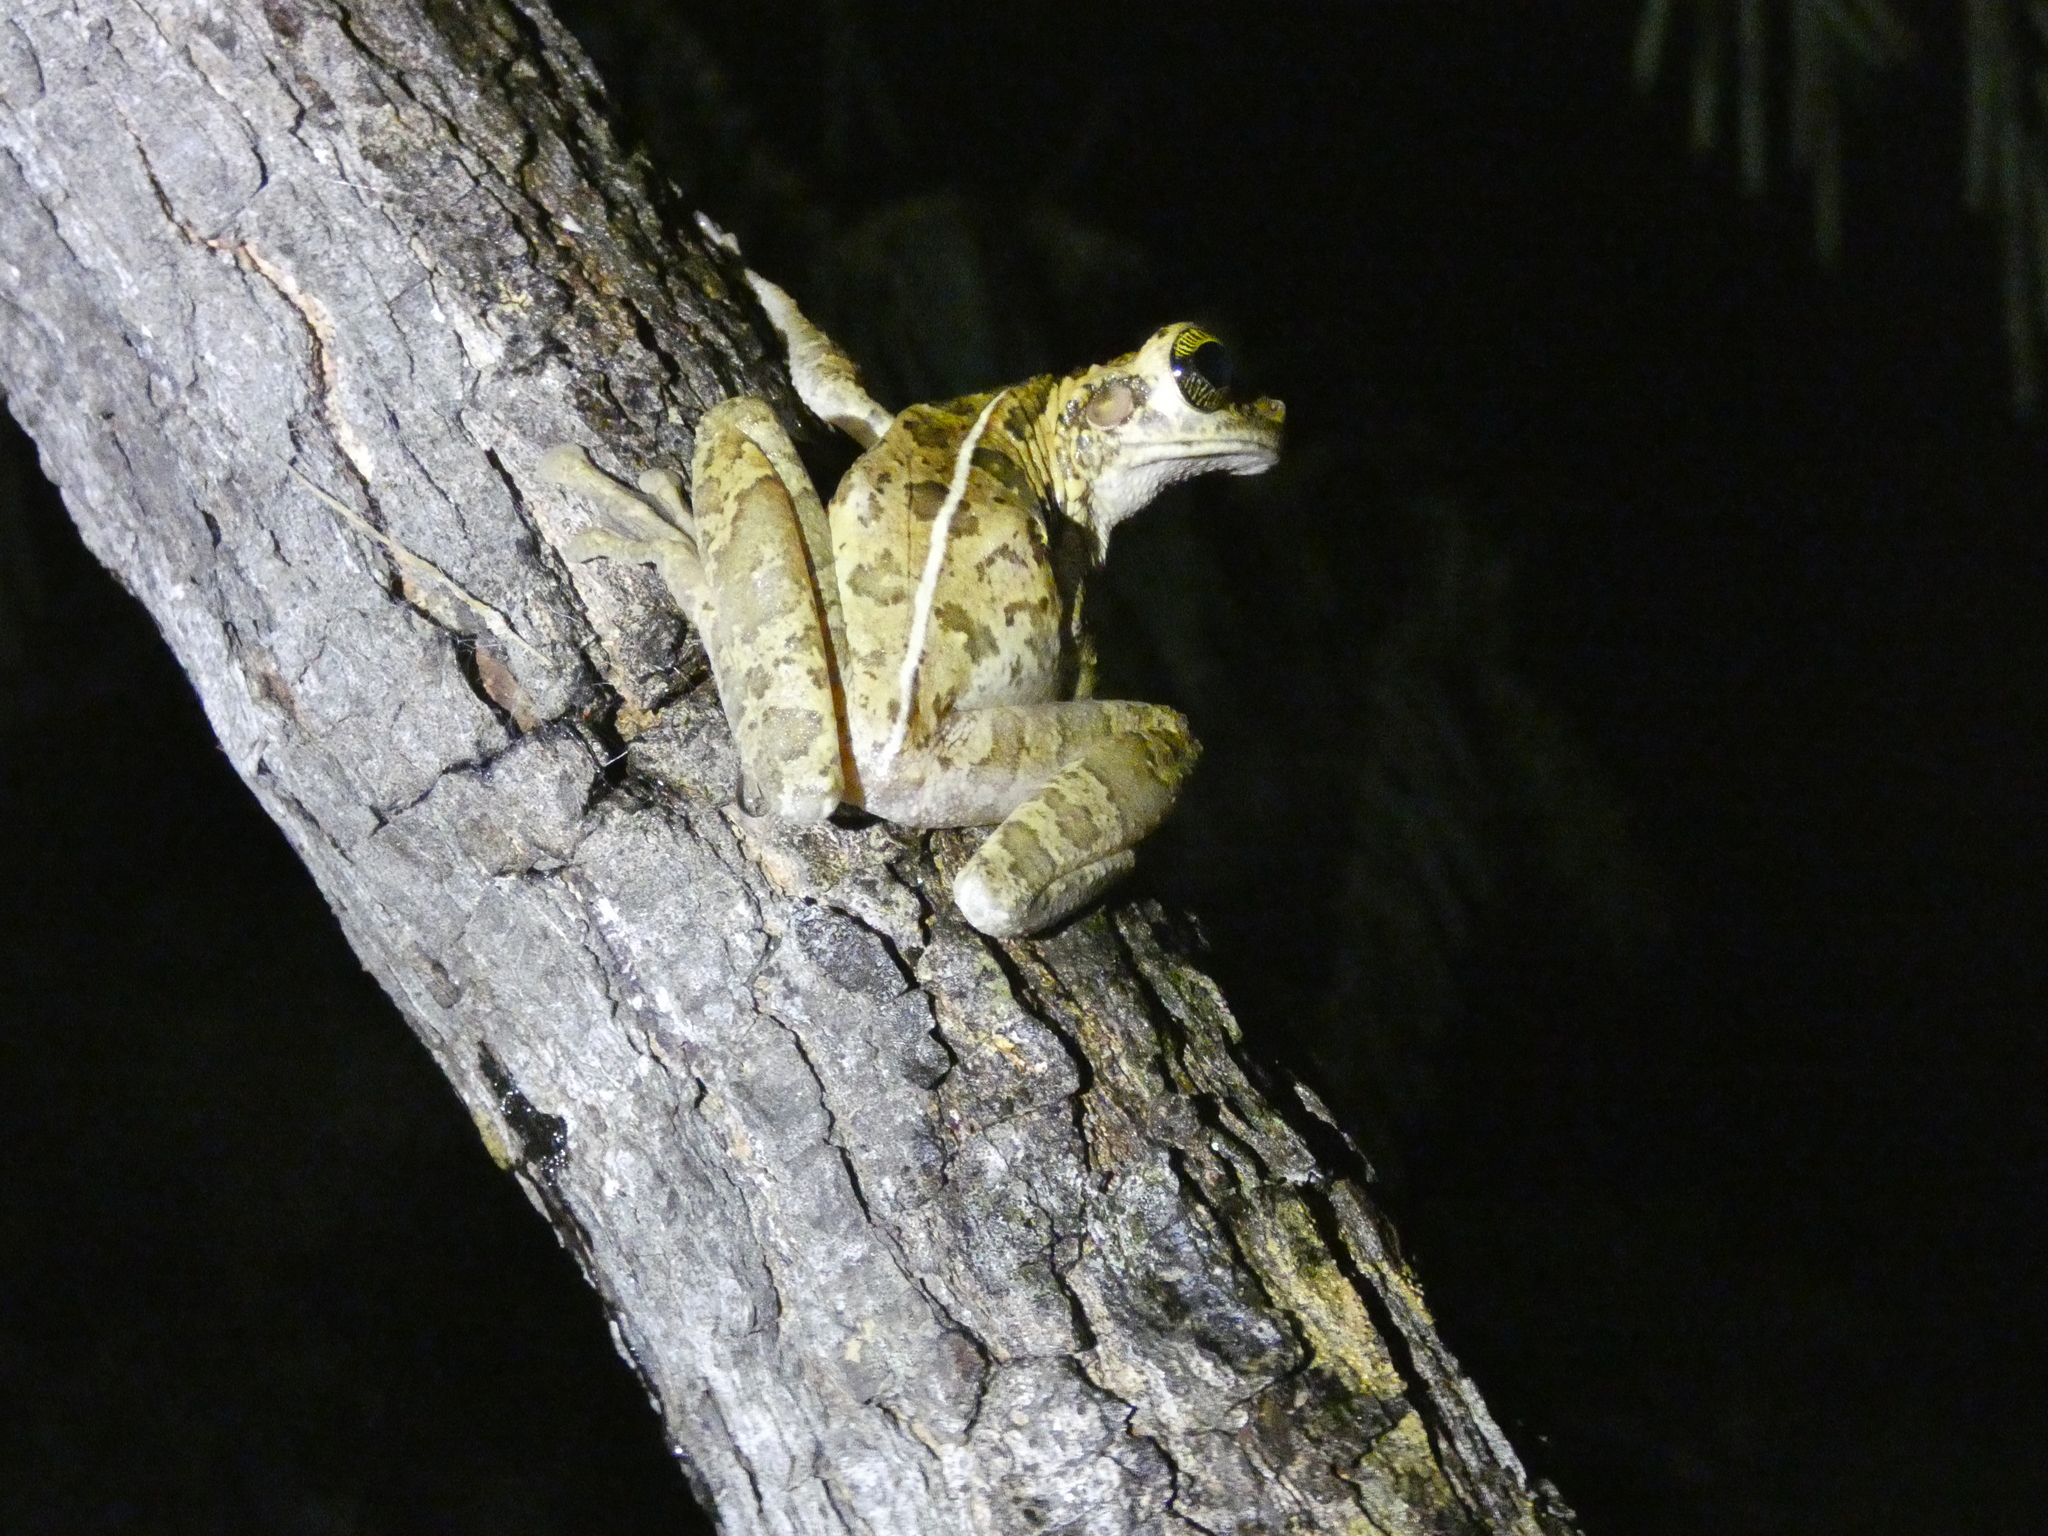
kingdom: Animalia
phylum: Chordata
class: Amphibia
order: Anura
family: Hylidae
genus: Osteocephalus
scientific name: Osteocephalus taurinus
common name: Manaus slender-legged treefrog
